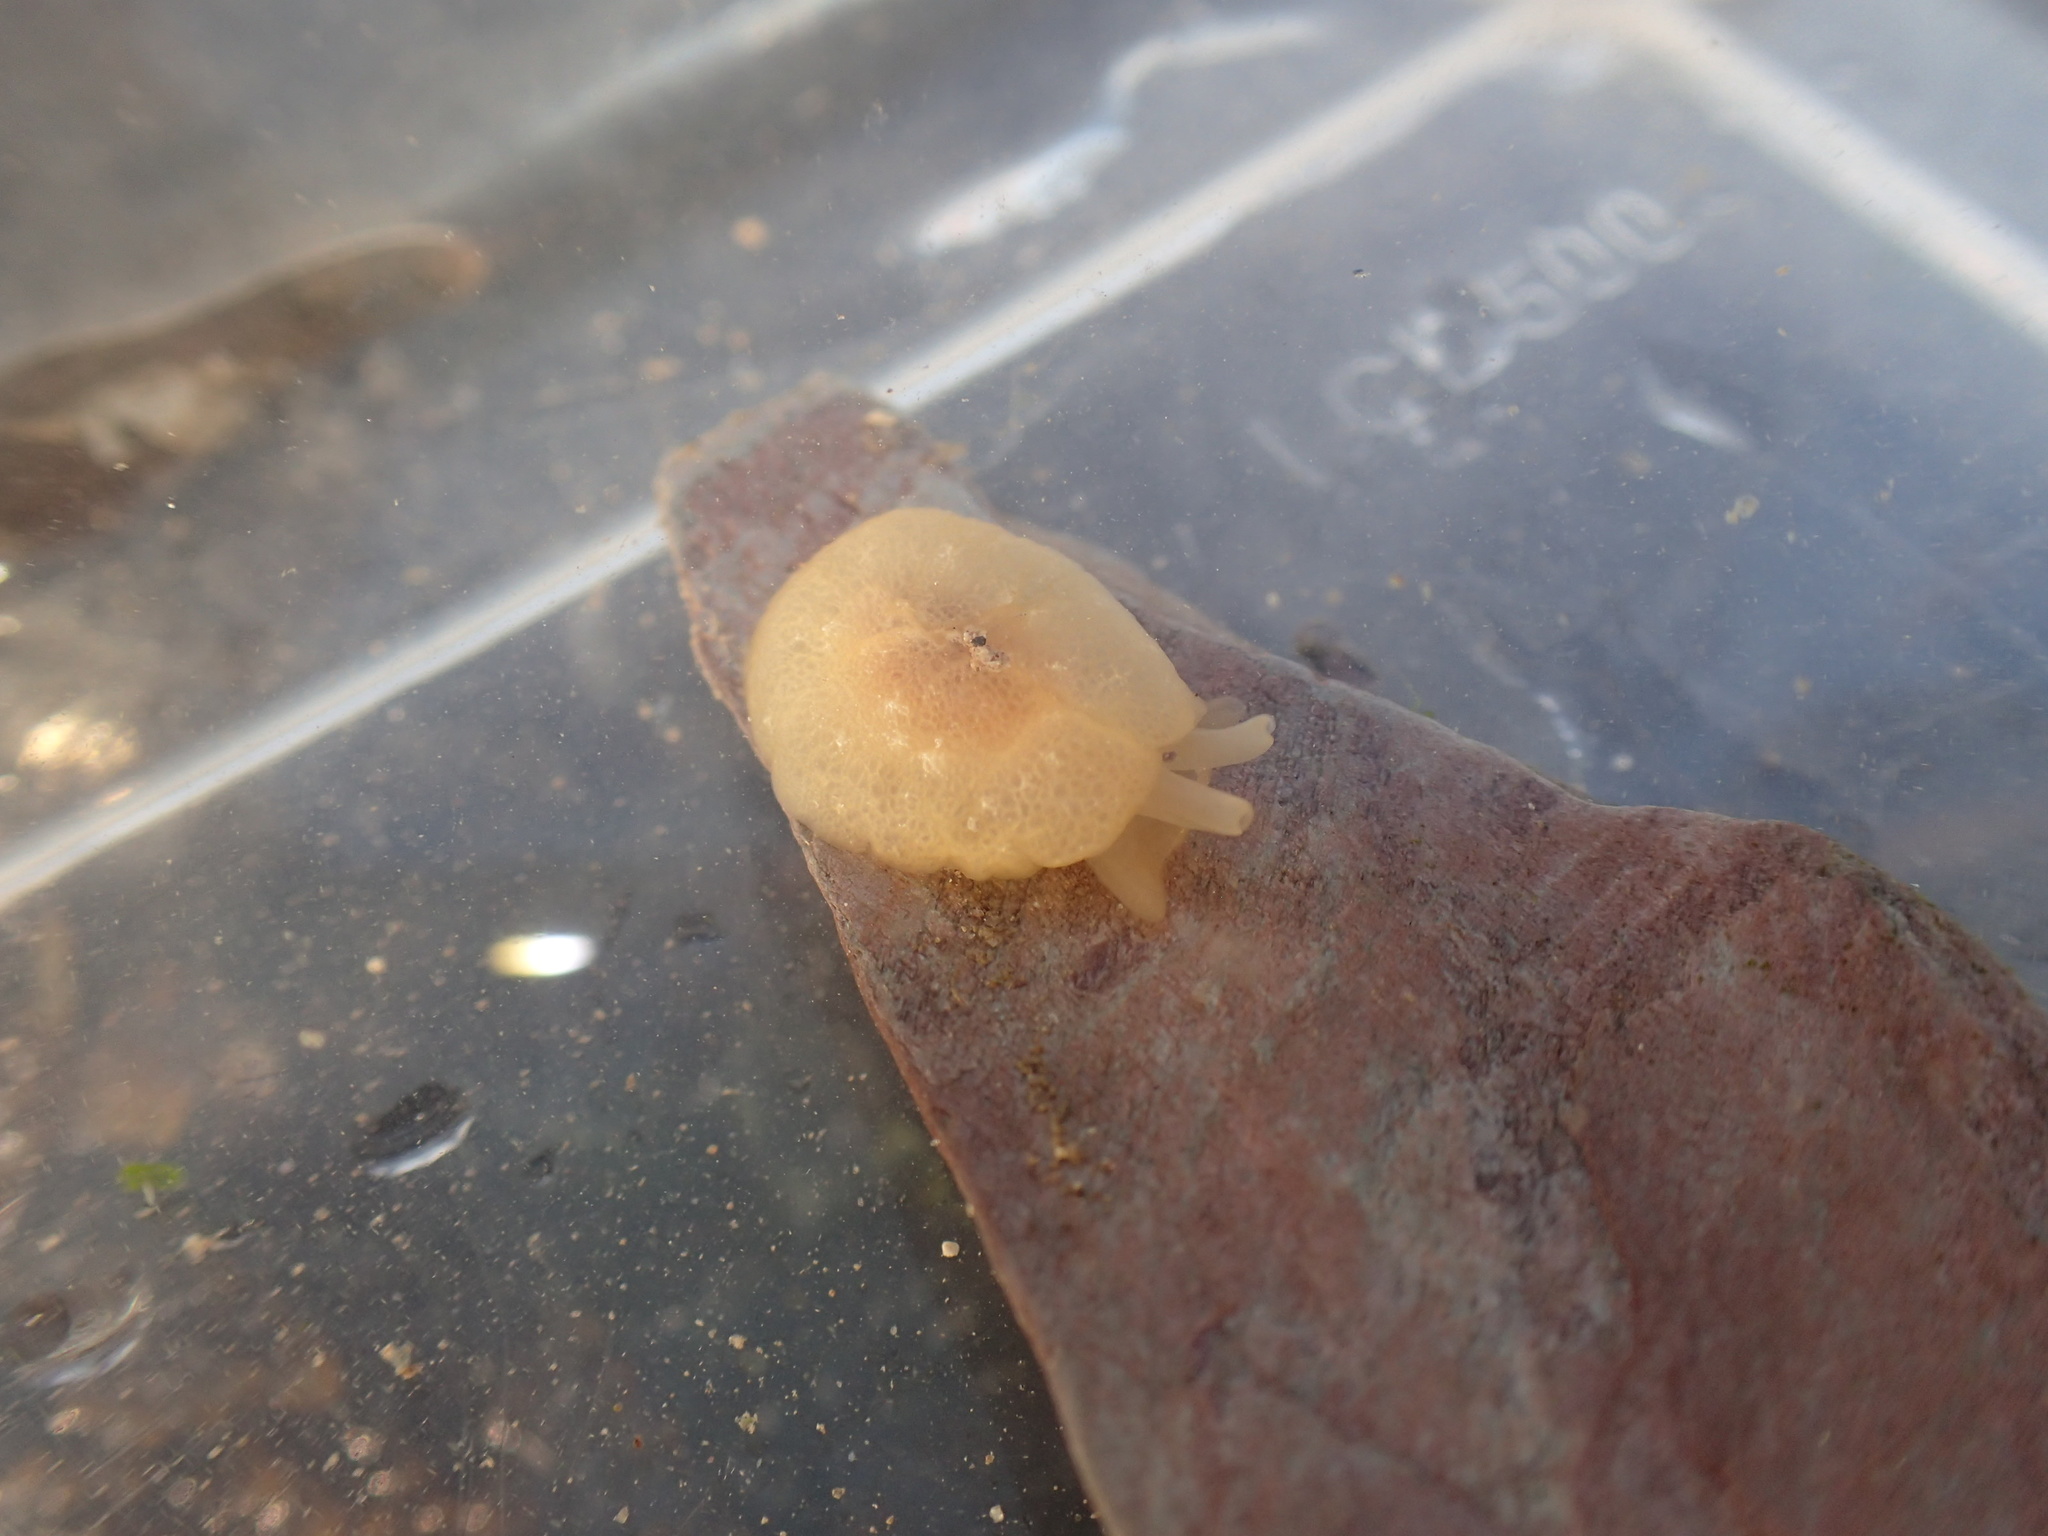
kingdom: Animalia
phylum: Mollusca
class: Gastropoda
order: Pleurobranchida
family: Pleurobranchidae
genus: Berthella
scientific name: Berthella plumula
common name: Yellow-plumed sea slug
